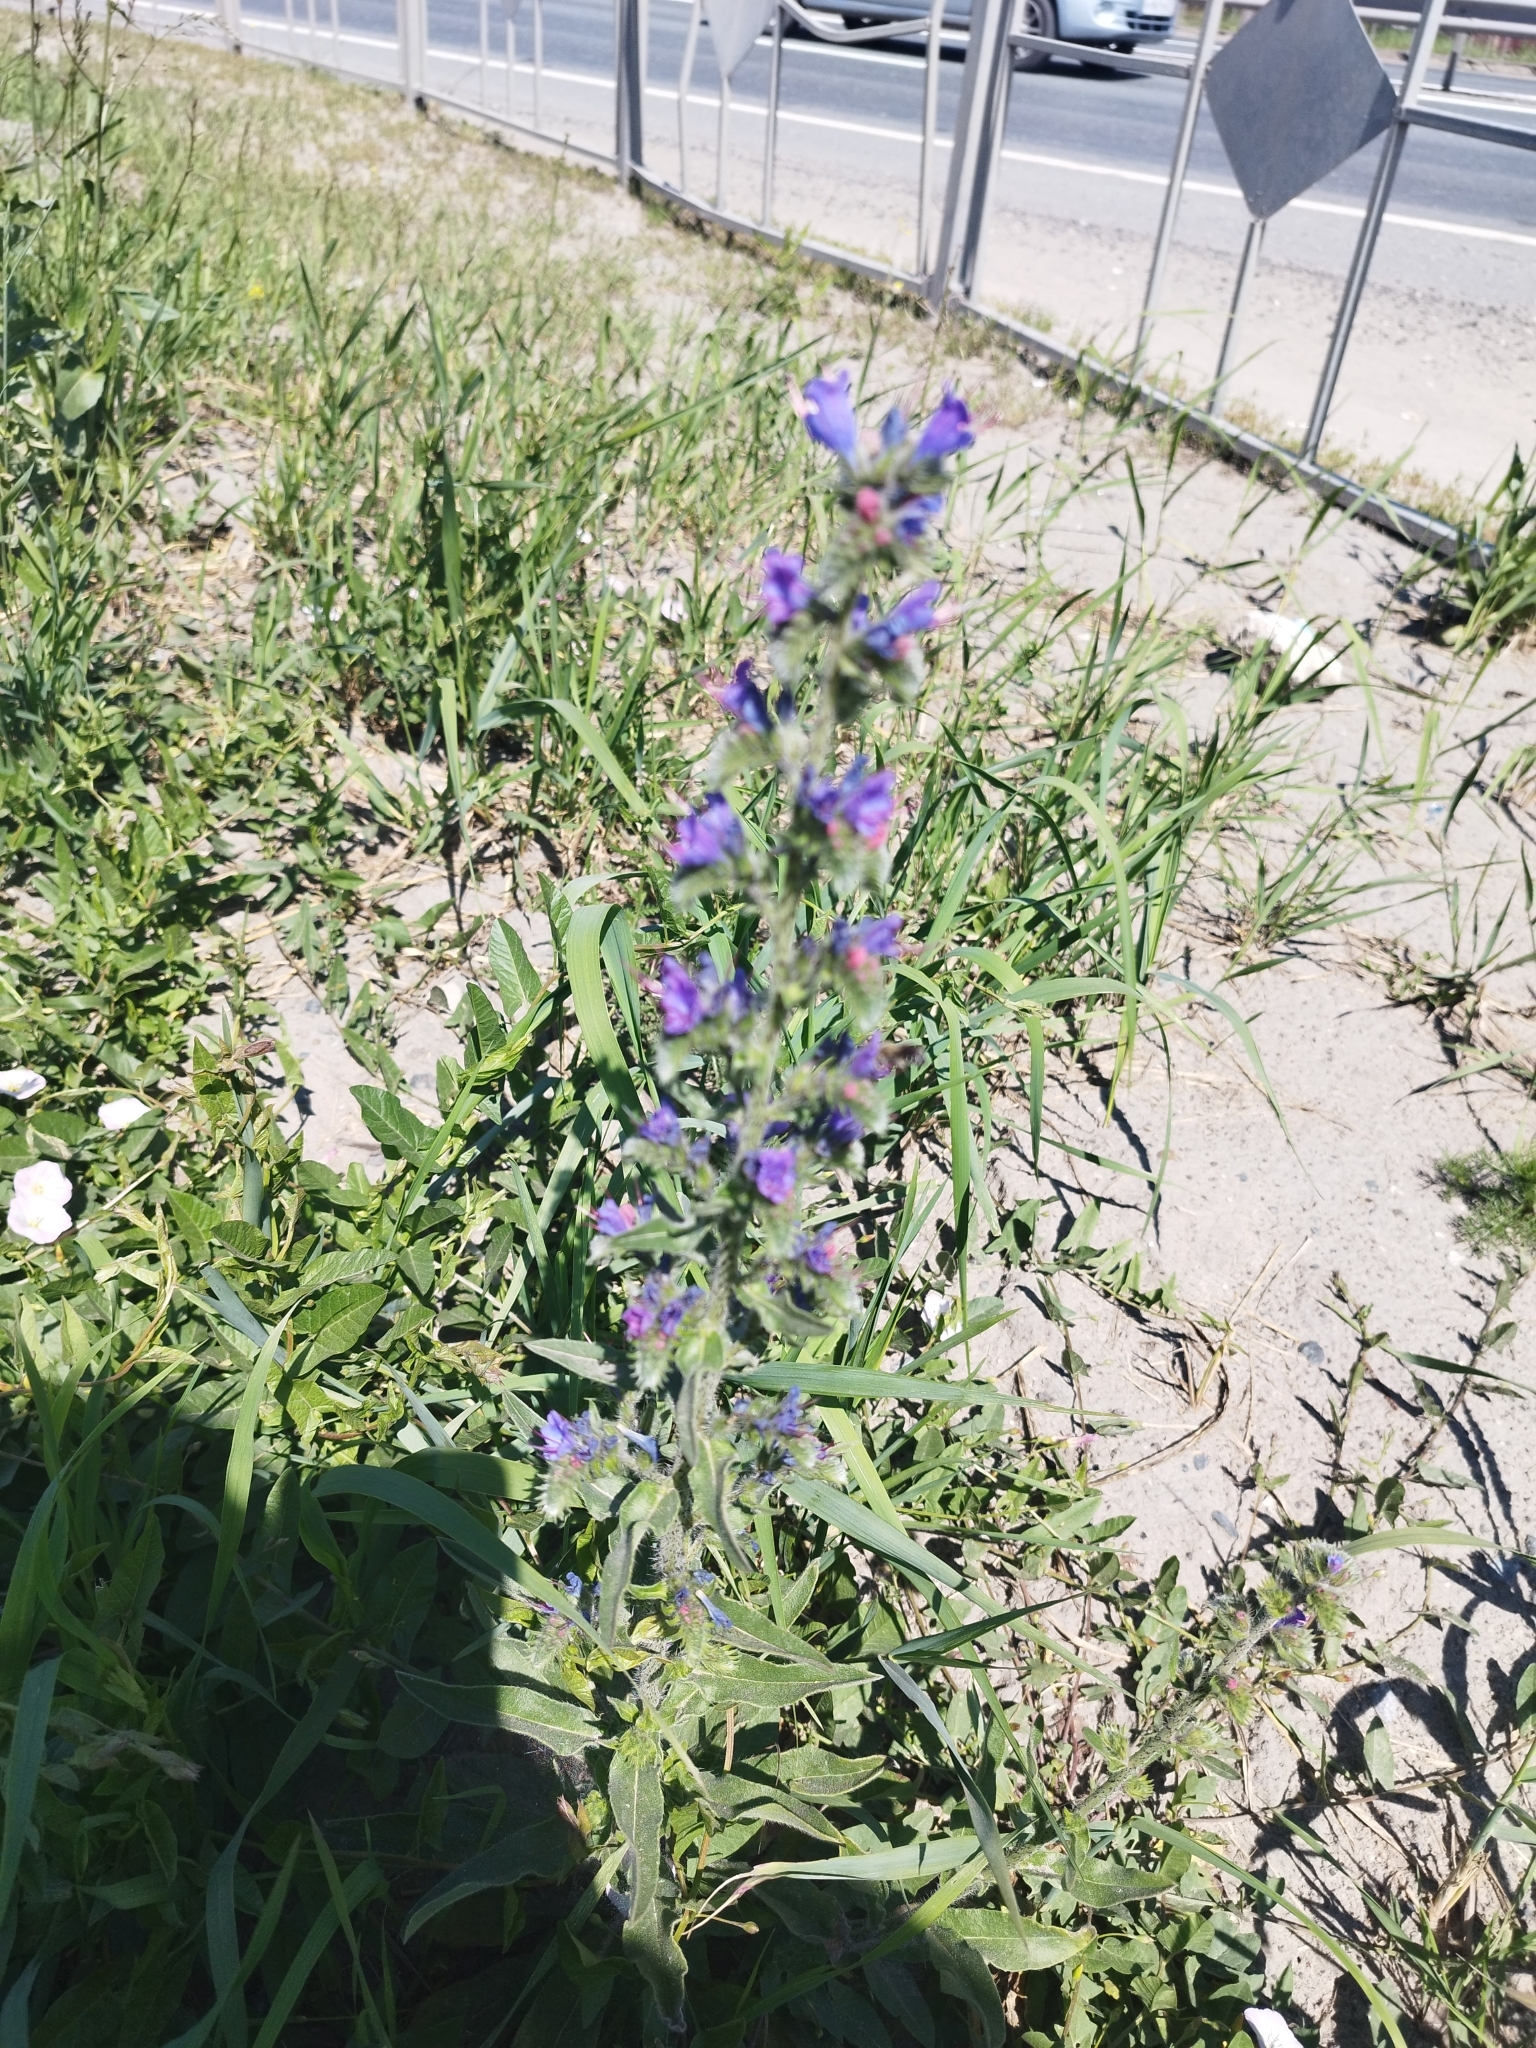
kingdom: Plantae
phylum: Tracheophyta
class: Magnoliopsida
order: Boraginales
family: Boraginaceae
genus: Echium
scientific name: Echium vulgare
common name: Common viper's bugloss
